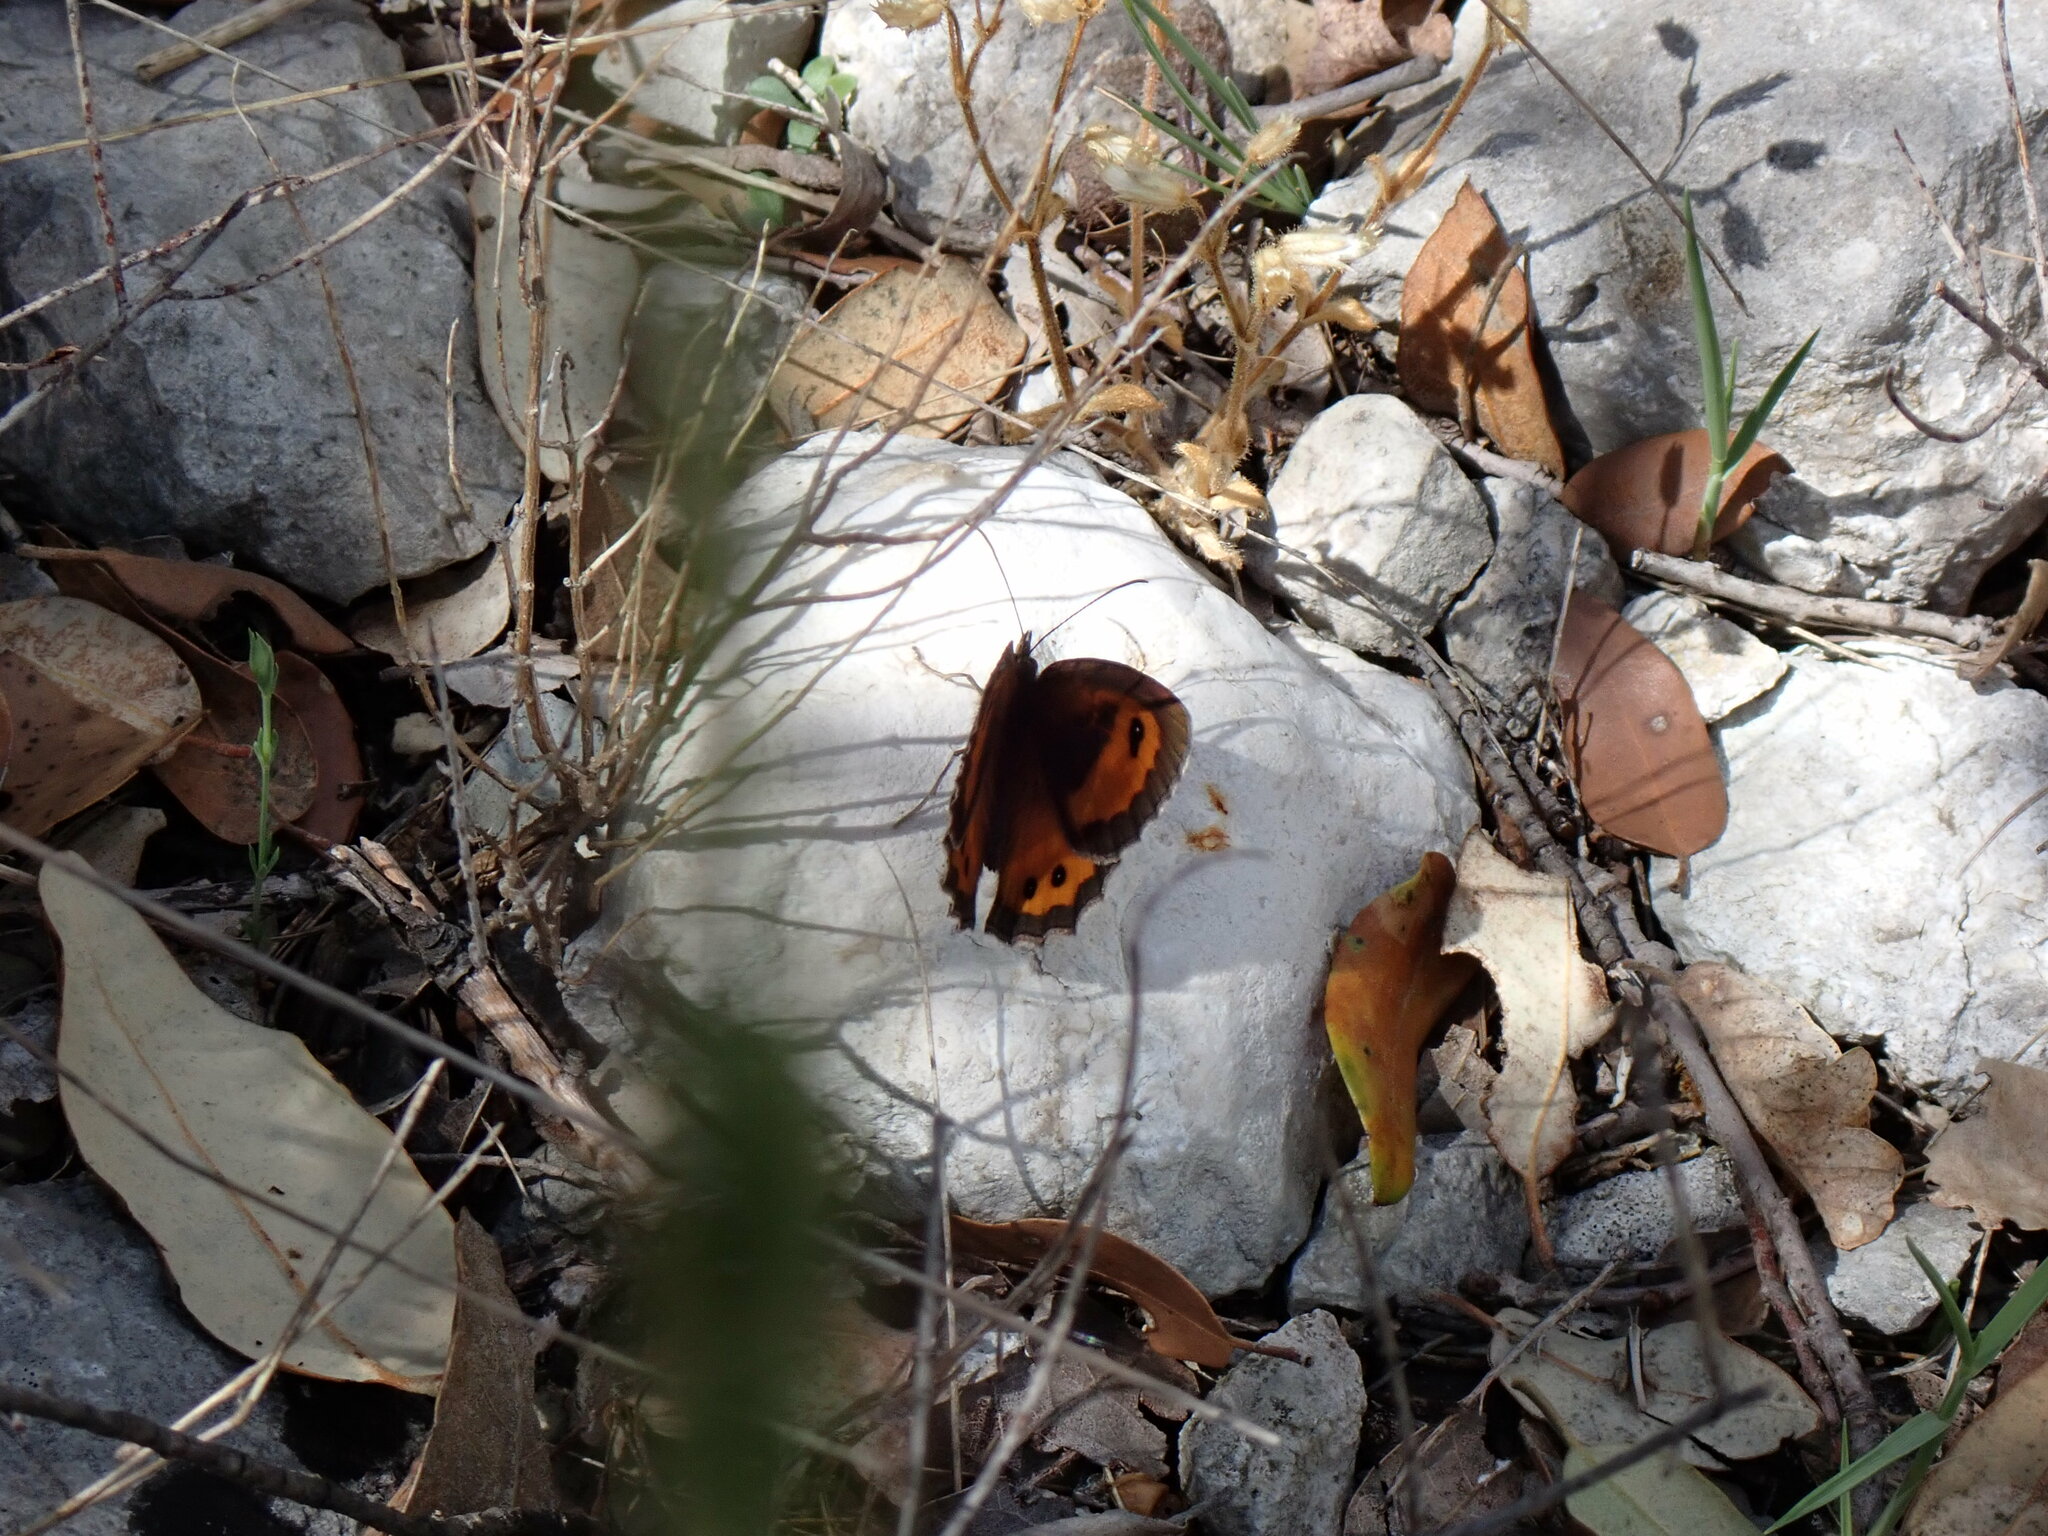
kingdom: Animalia
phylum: Arthropoda
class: Insecta
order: Lepidoptera
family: Nymphalidae
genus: Pyronia
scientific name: Pyronia bathseba
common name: Spanish gatekeeper
